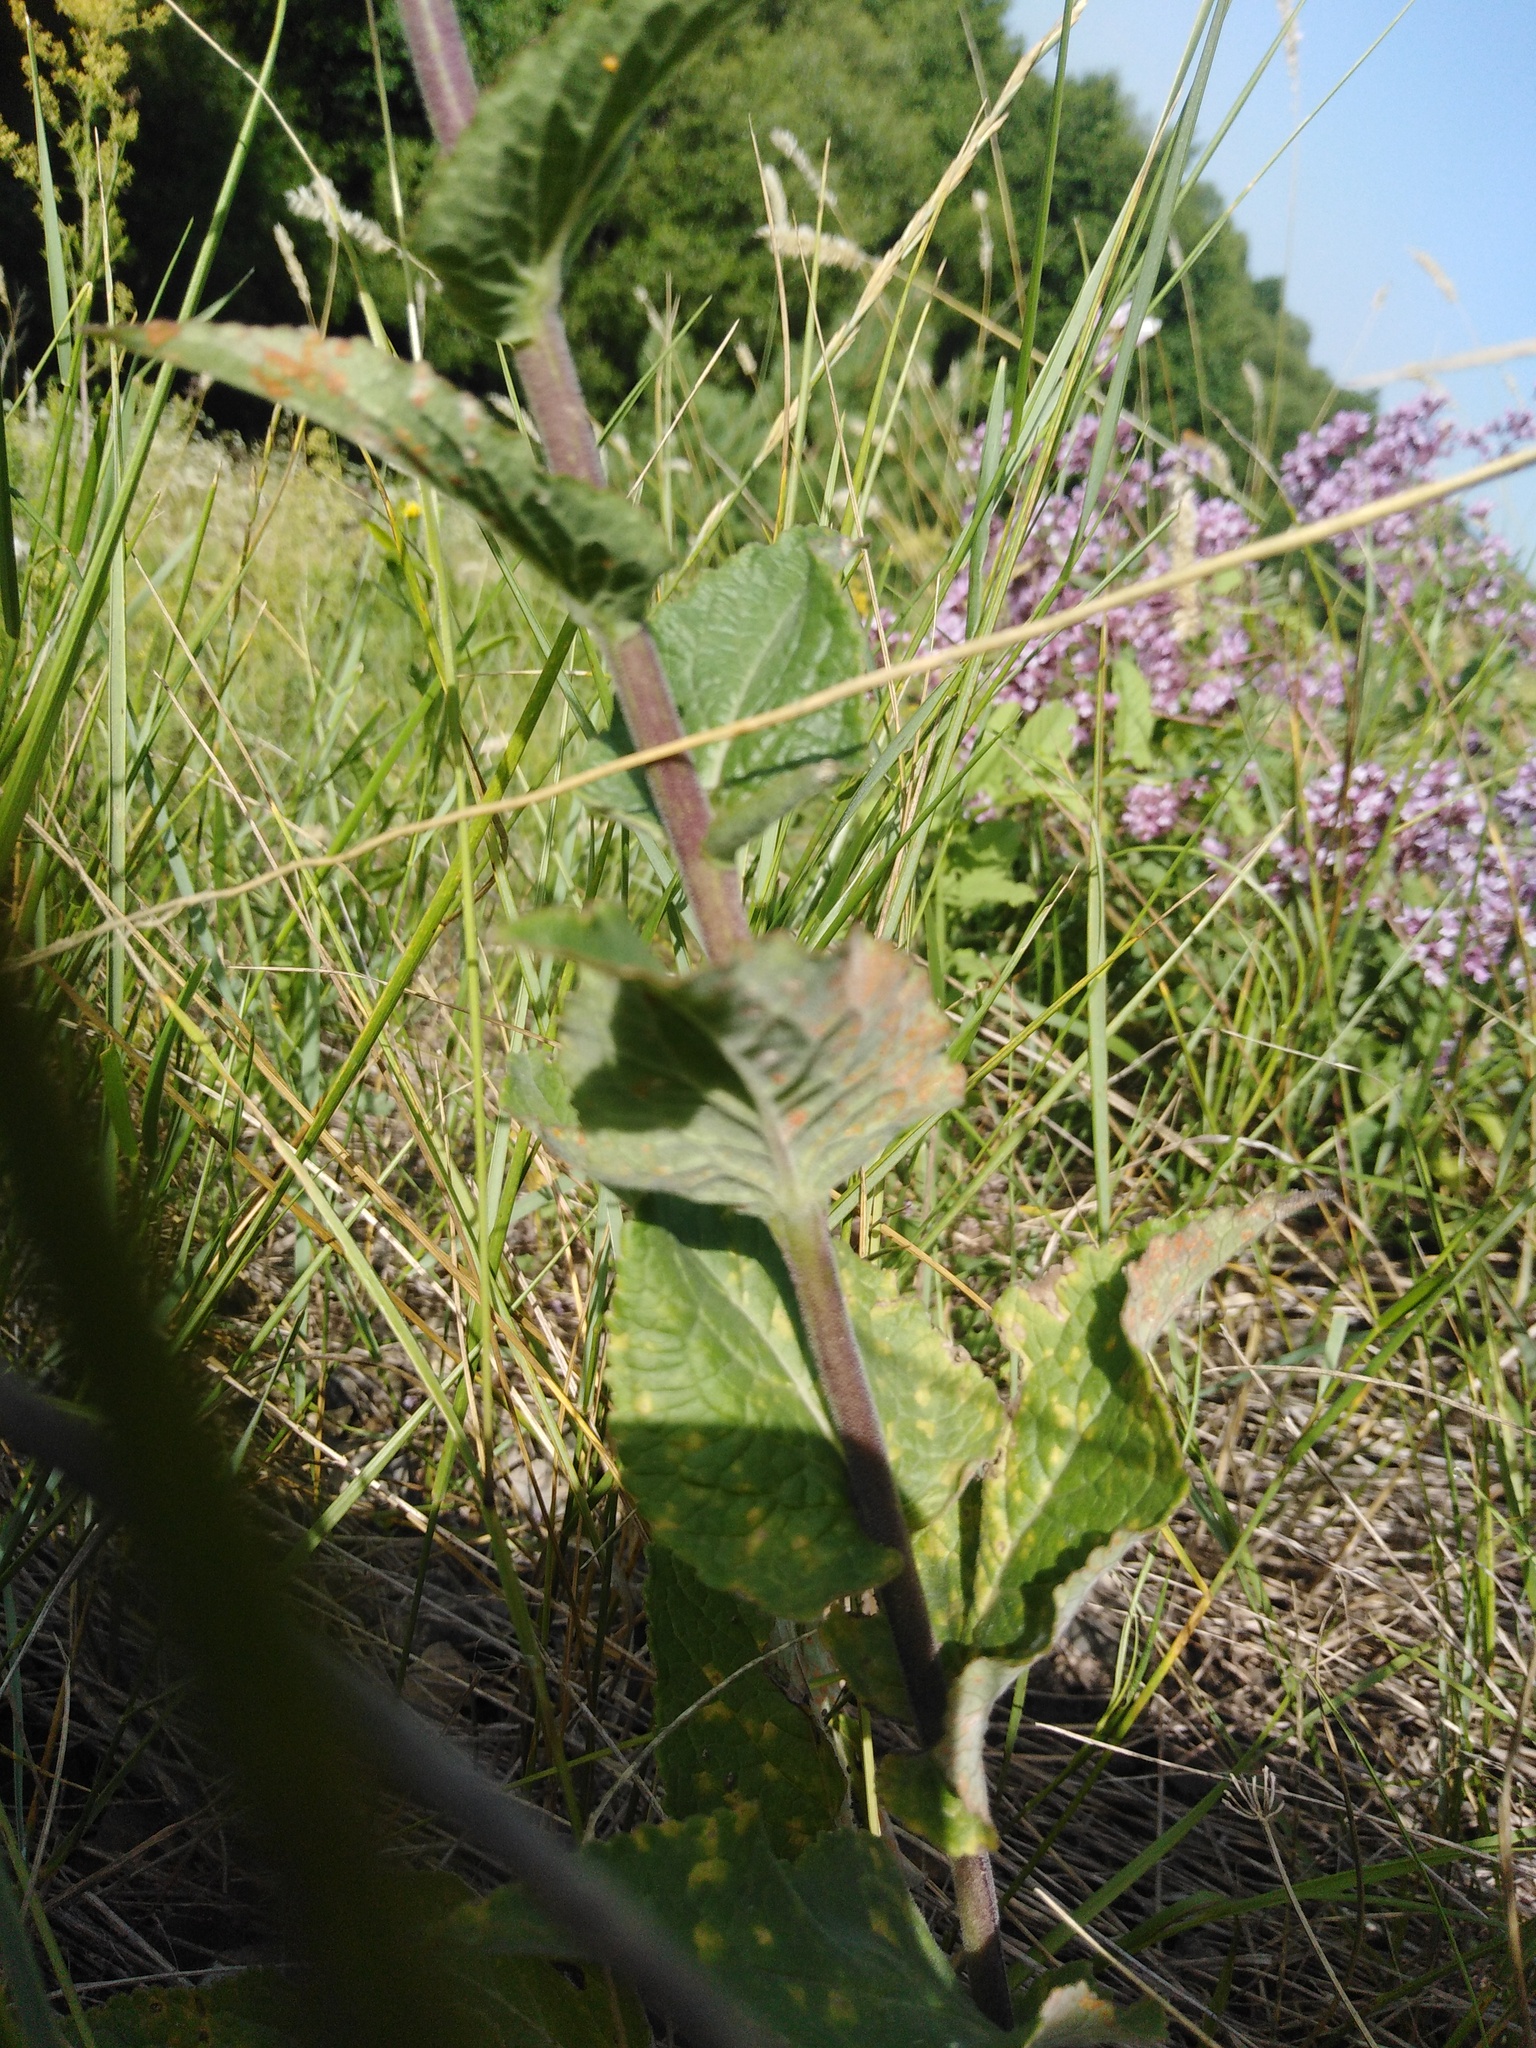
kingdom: Plantae
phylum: Tracheophyta
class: Magnoliopsida
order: Asterales
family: Campanulaceae
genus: Campanula
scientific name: Campanula bononiensis
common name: Pale bellflower
